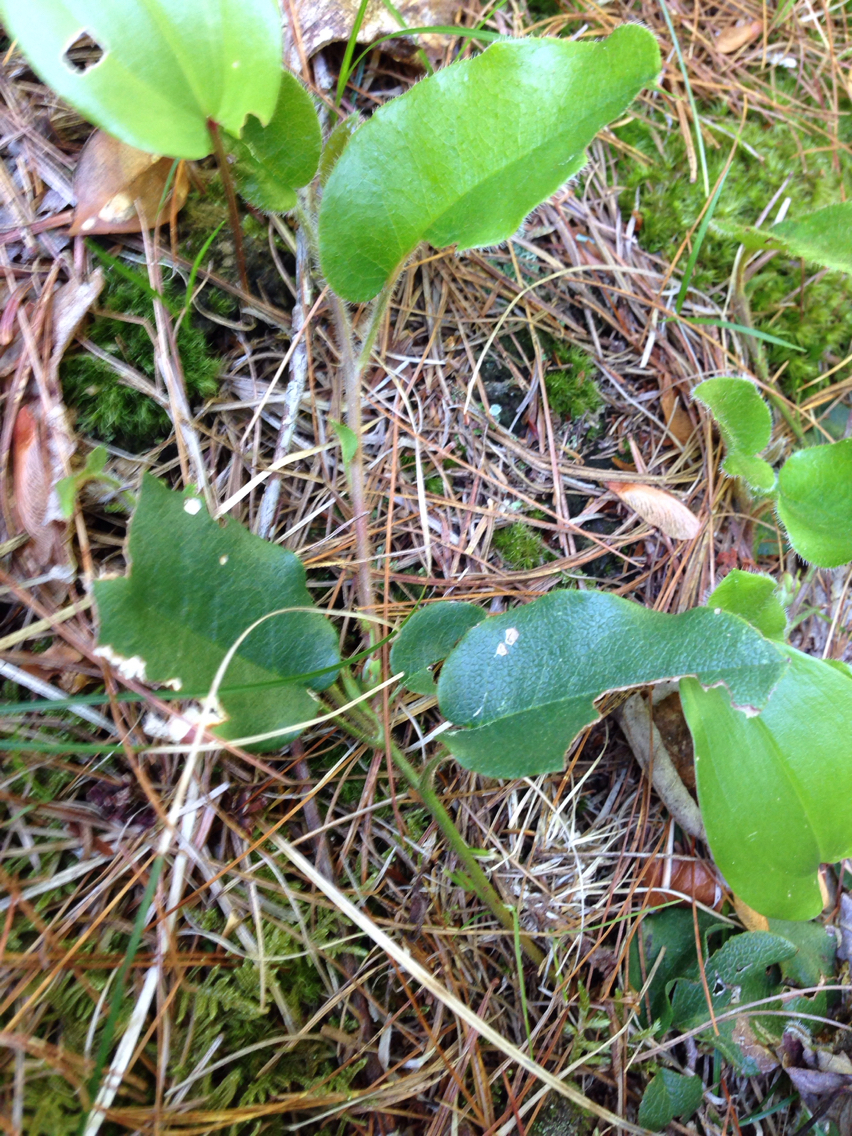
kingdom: Plantae
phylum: Tracheophyta
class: Magnoliopsida
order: Ericales
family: Ericaceae
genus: Epigaea
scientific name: Epigaea repens
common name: Gravelroot
